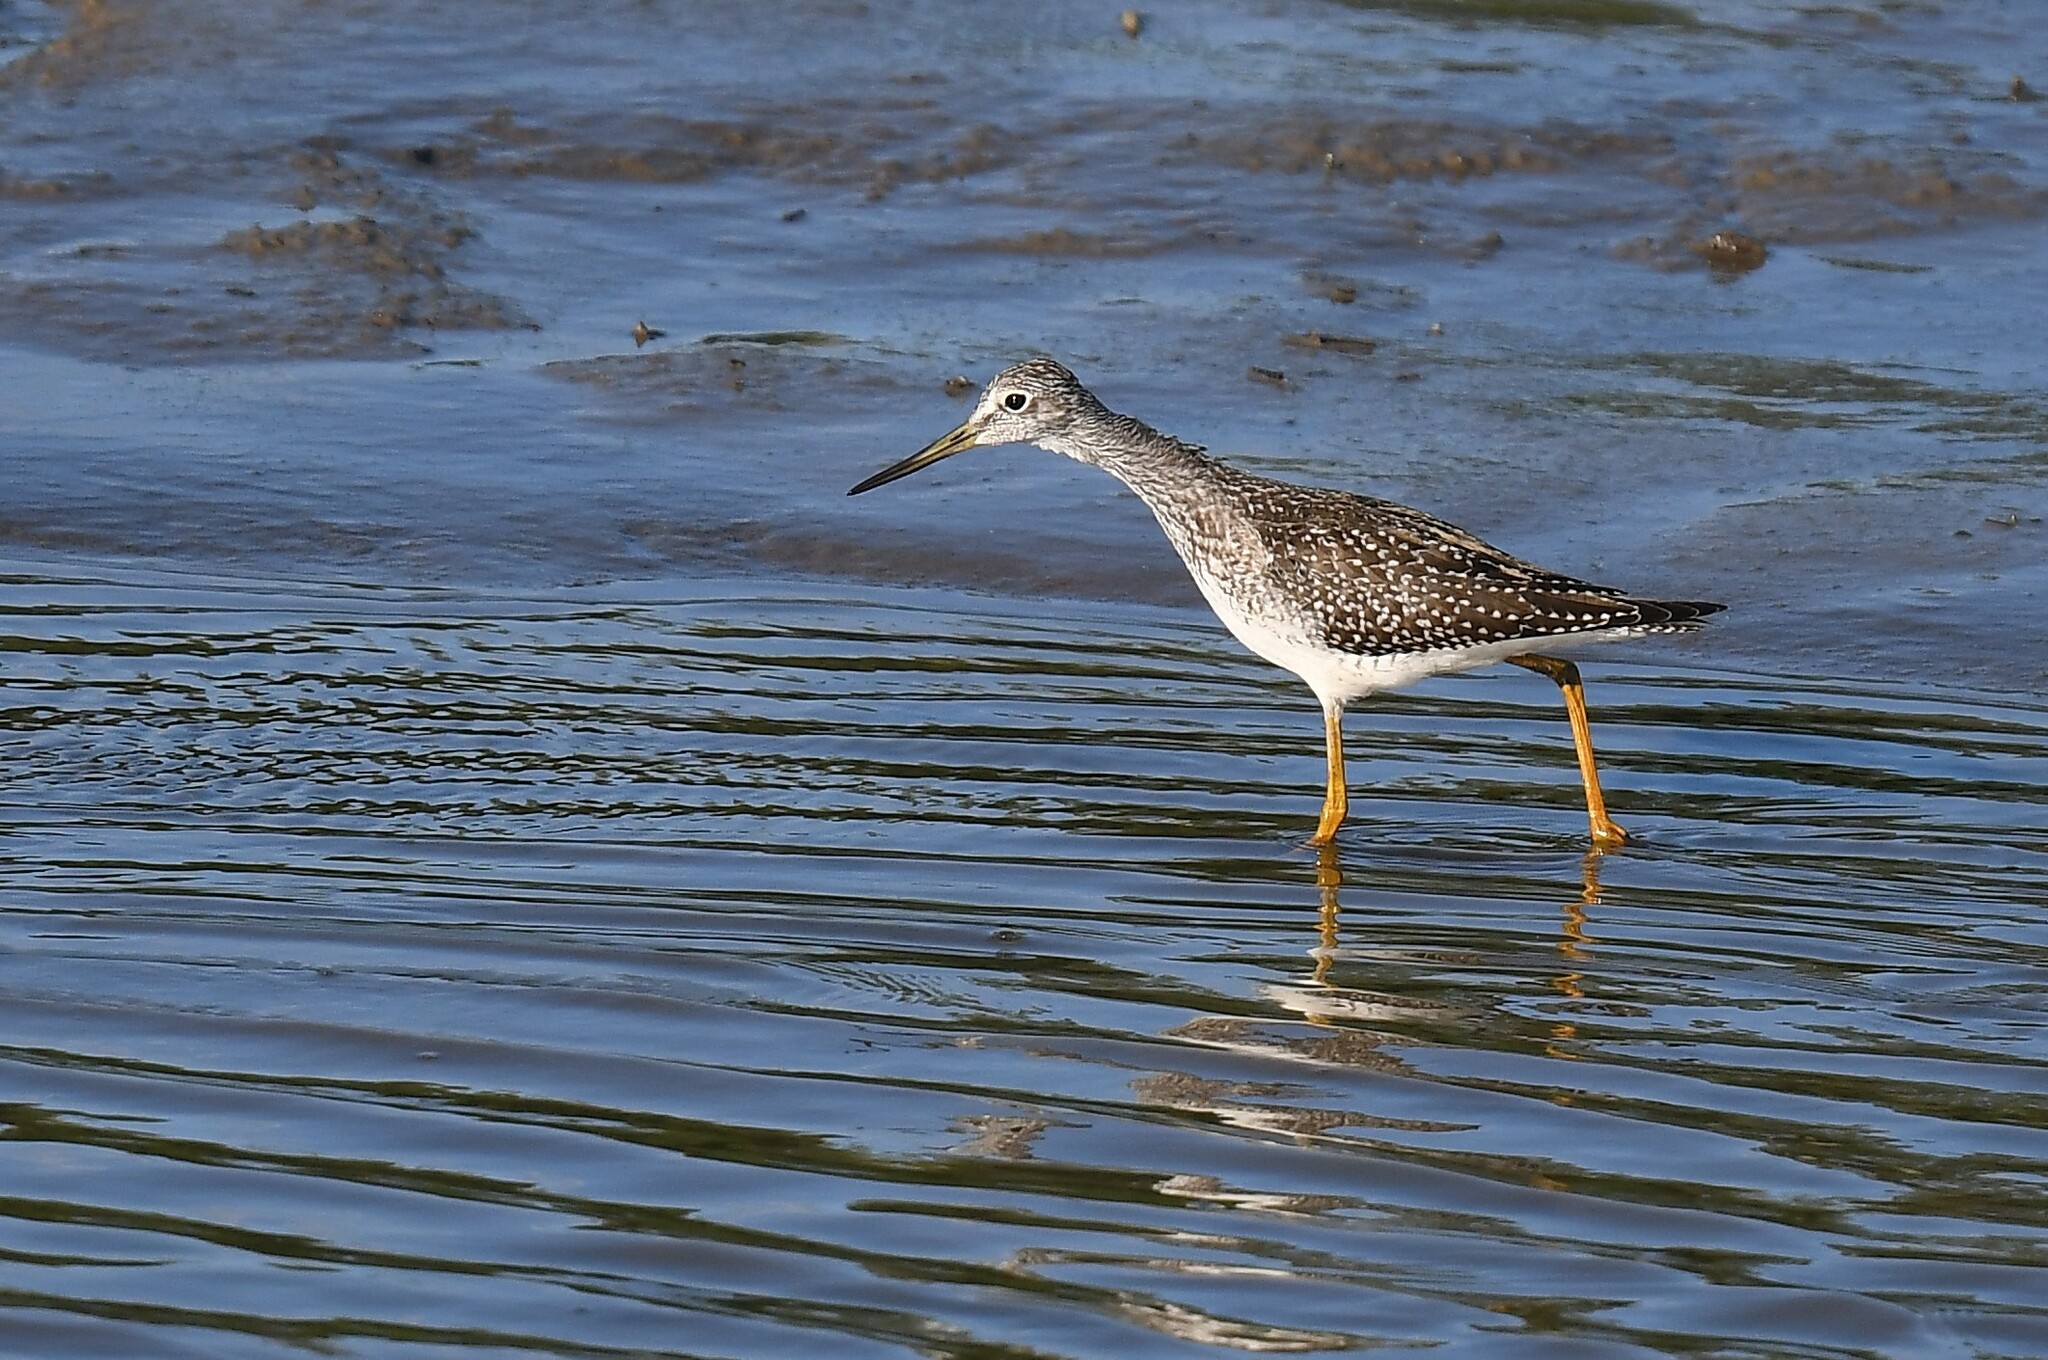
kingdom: Animalia
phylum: Chordata
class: Aves
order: Charadriiformes
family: Scolopacidae
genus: Tringa
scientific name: Tringa melanoleuca
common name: Greater yellowlegs
